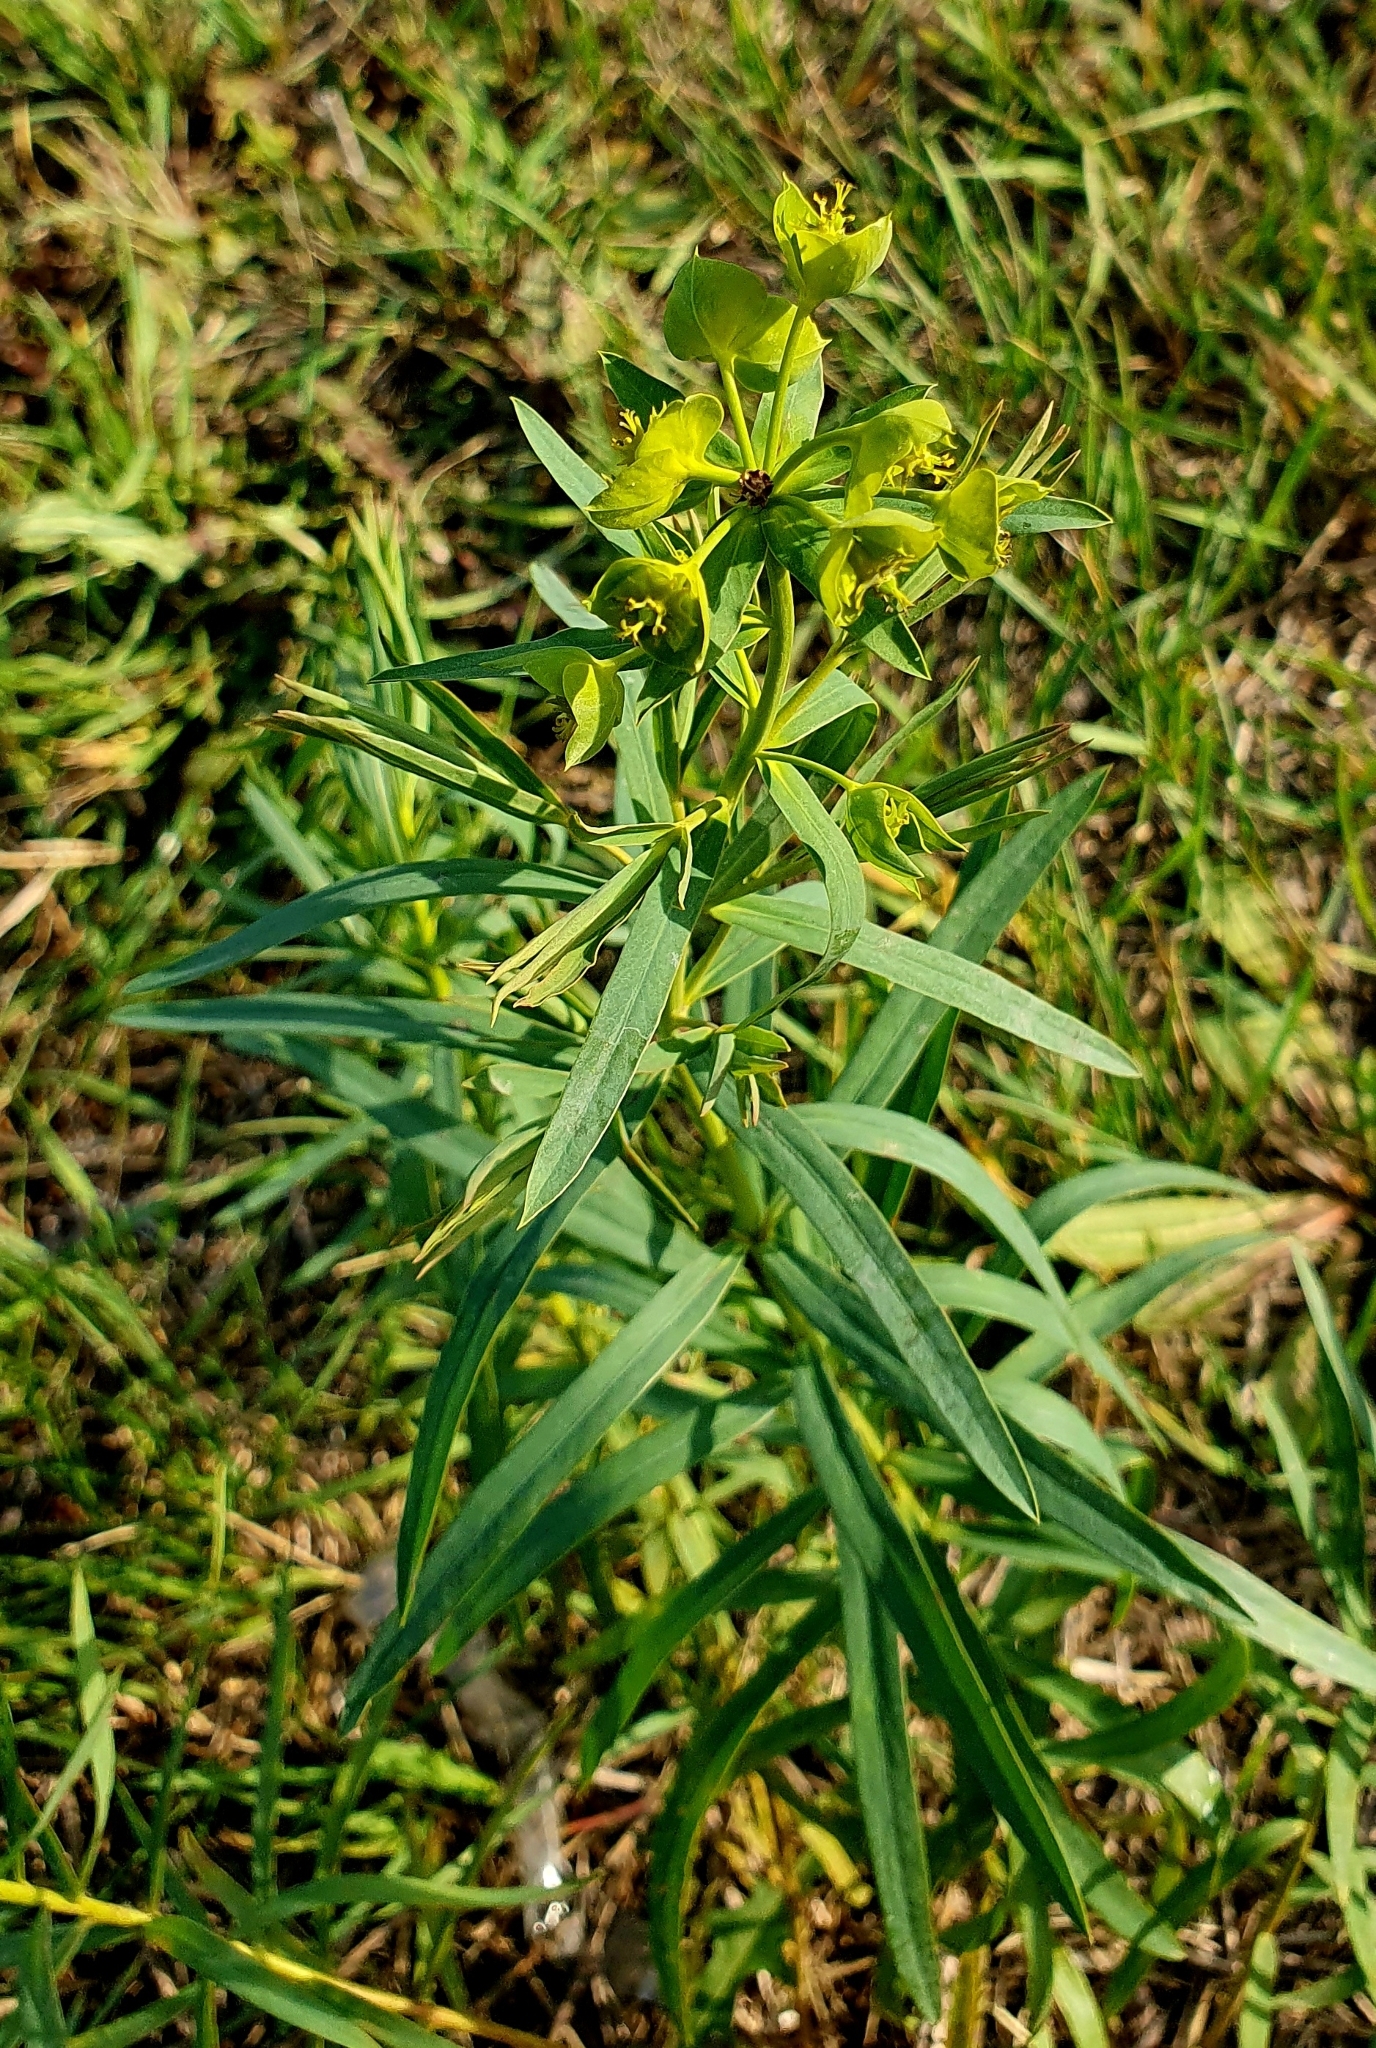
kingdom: Plantae
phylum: Tracheophyta
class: Magnoliopsida
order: Malpighiales
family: Euphorbiaceae
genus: Euphorbia
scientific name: Euphorbia virgata
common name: Leafy spurge
